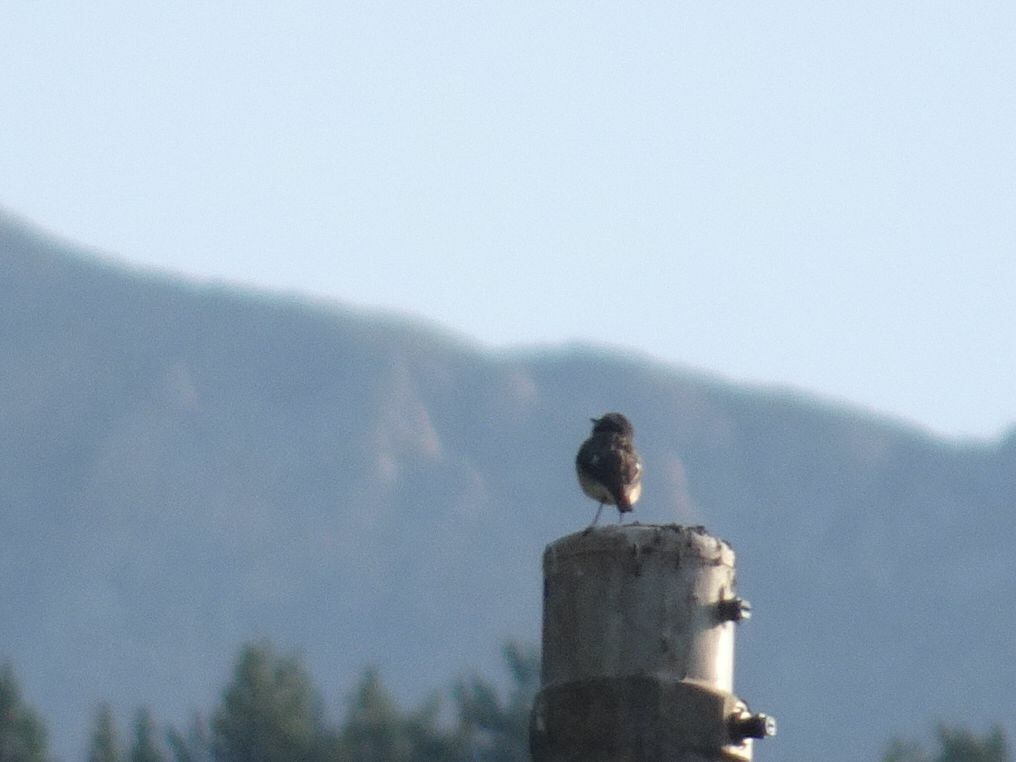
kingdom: Animalia
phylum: Chordata
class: Aves
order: Passeriformes
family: Muscicapidae
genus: Saxicola
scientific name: Saxicola rubetra
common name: Whinchat
